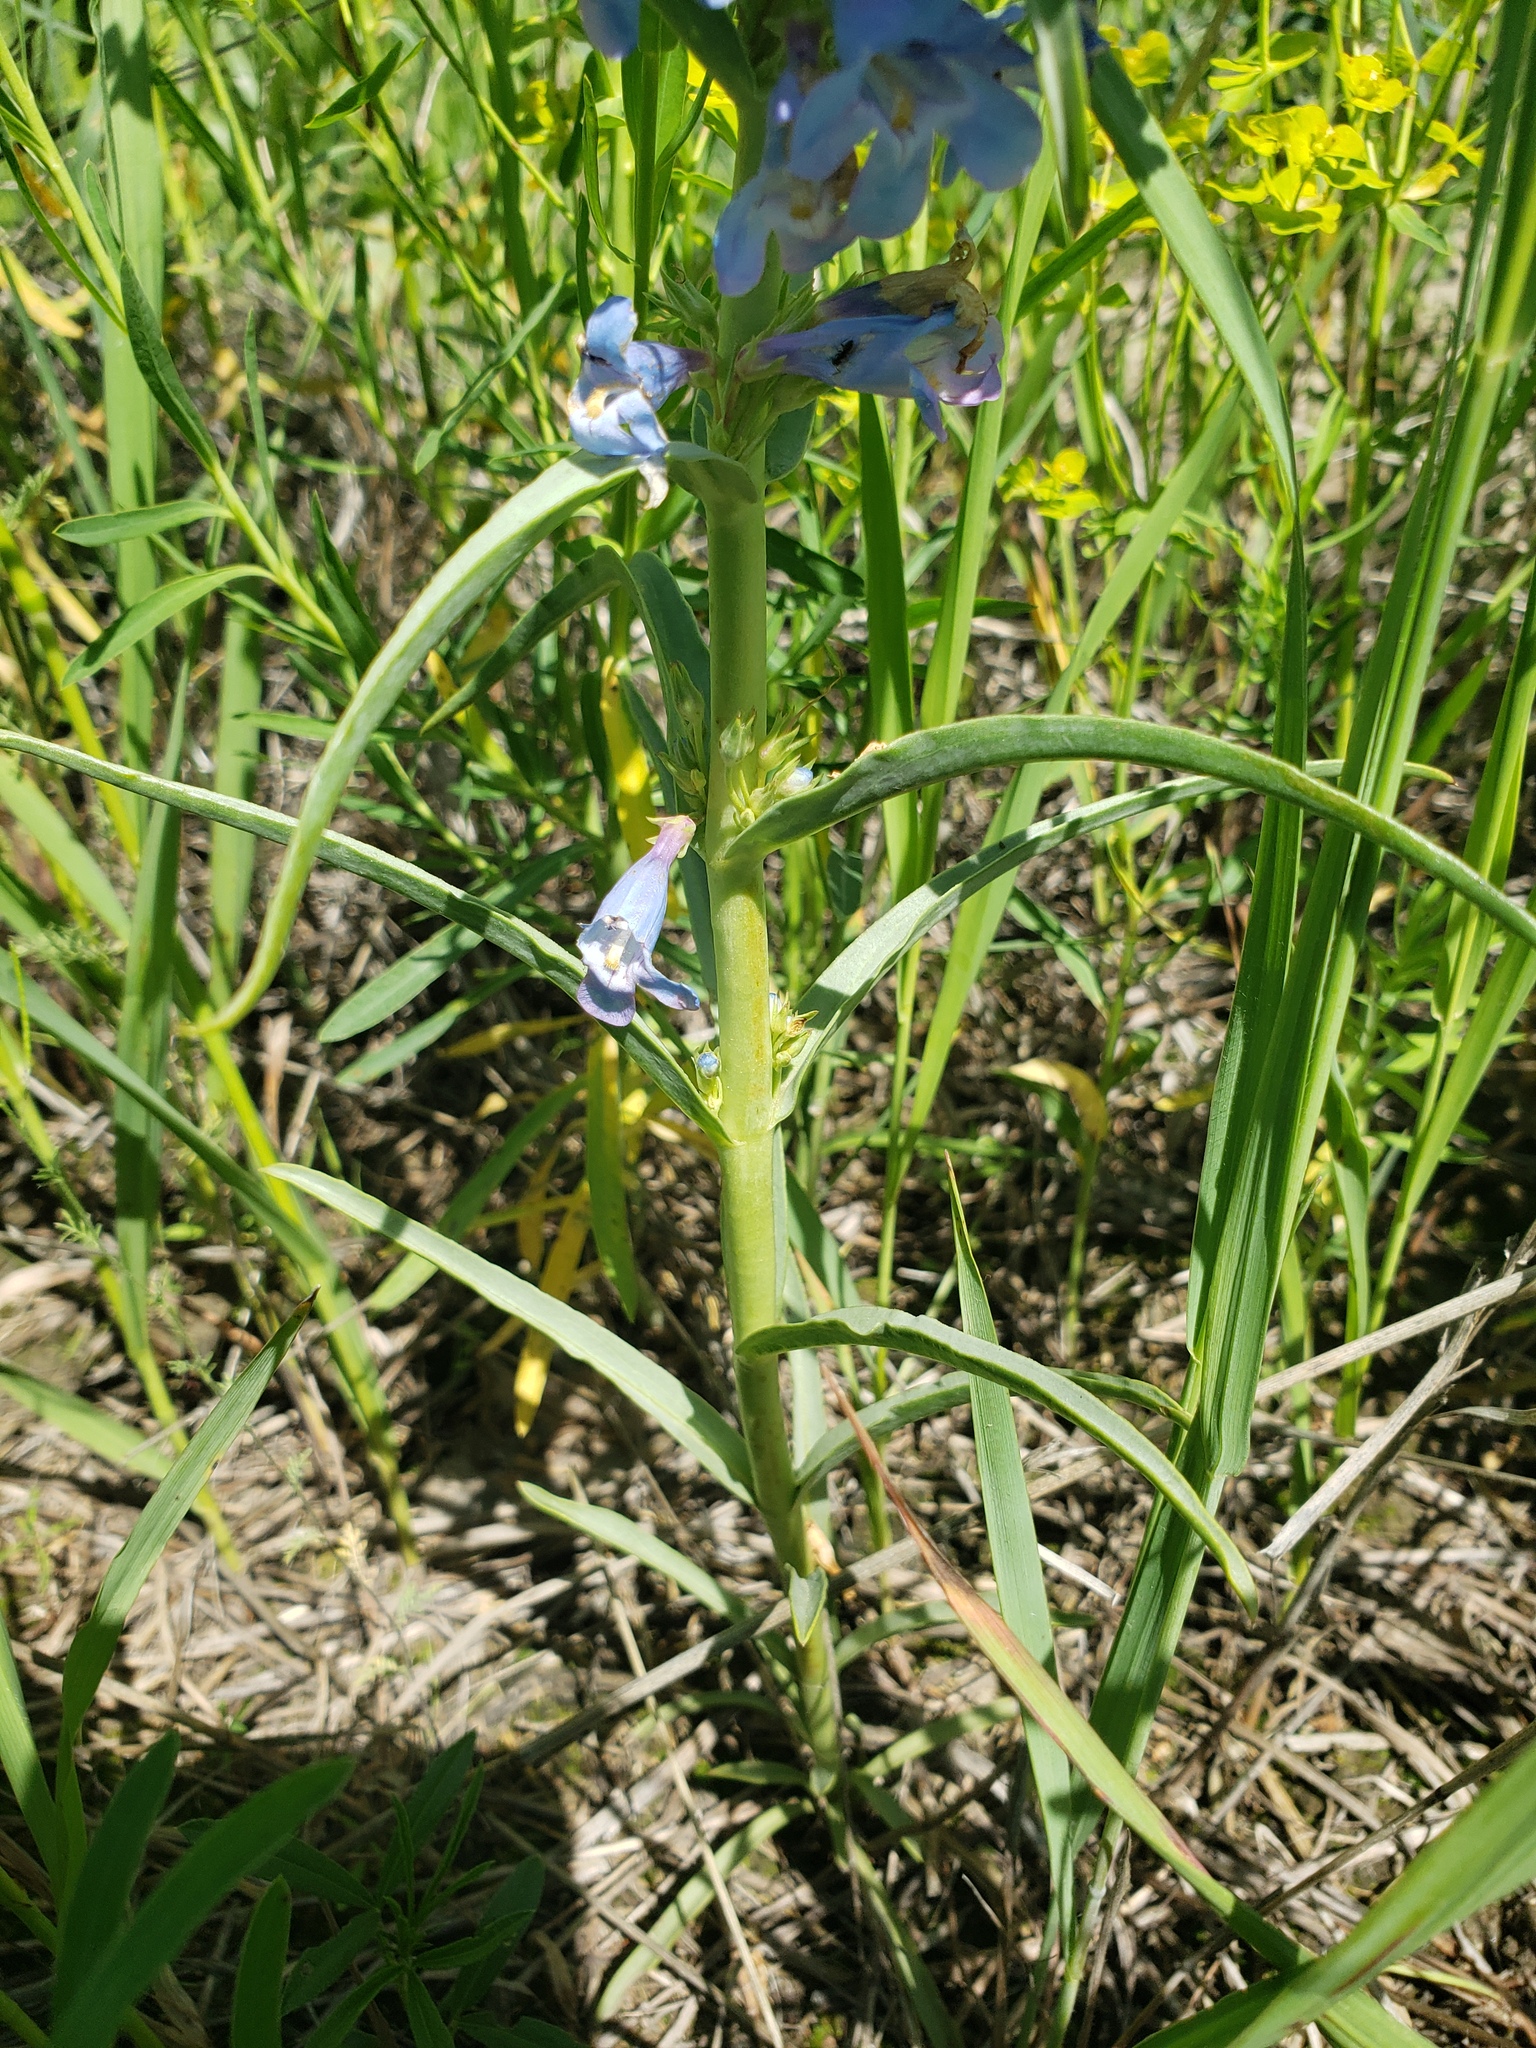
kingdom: Plantae
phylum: Tracheophyta
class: Magnoliopsida
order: Lamiales
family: Plantaginaceae
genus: Penstemon
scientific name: Penstemon angustifolius
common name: Narrow beardtongue
